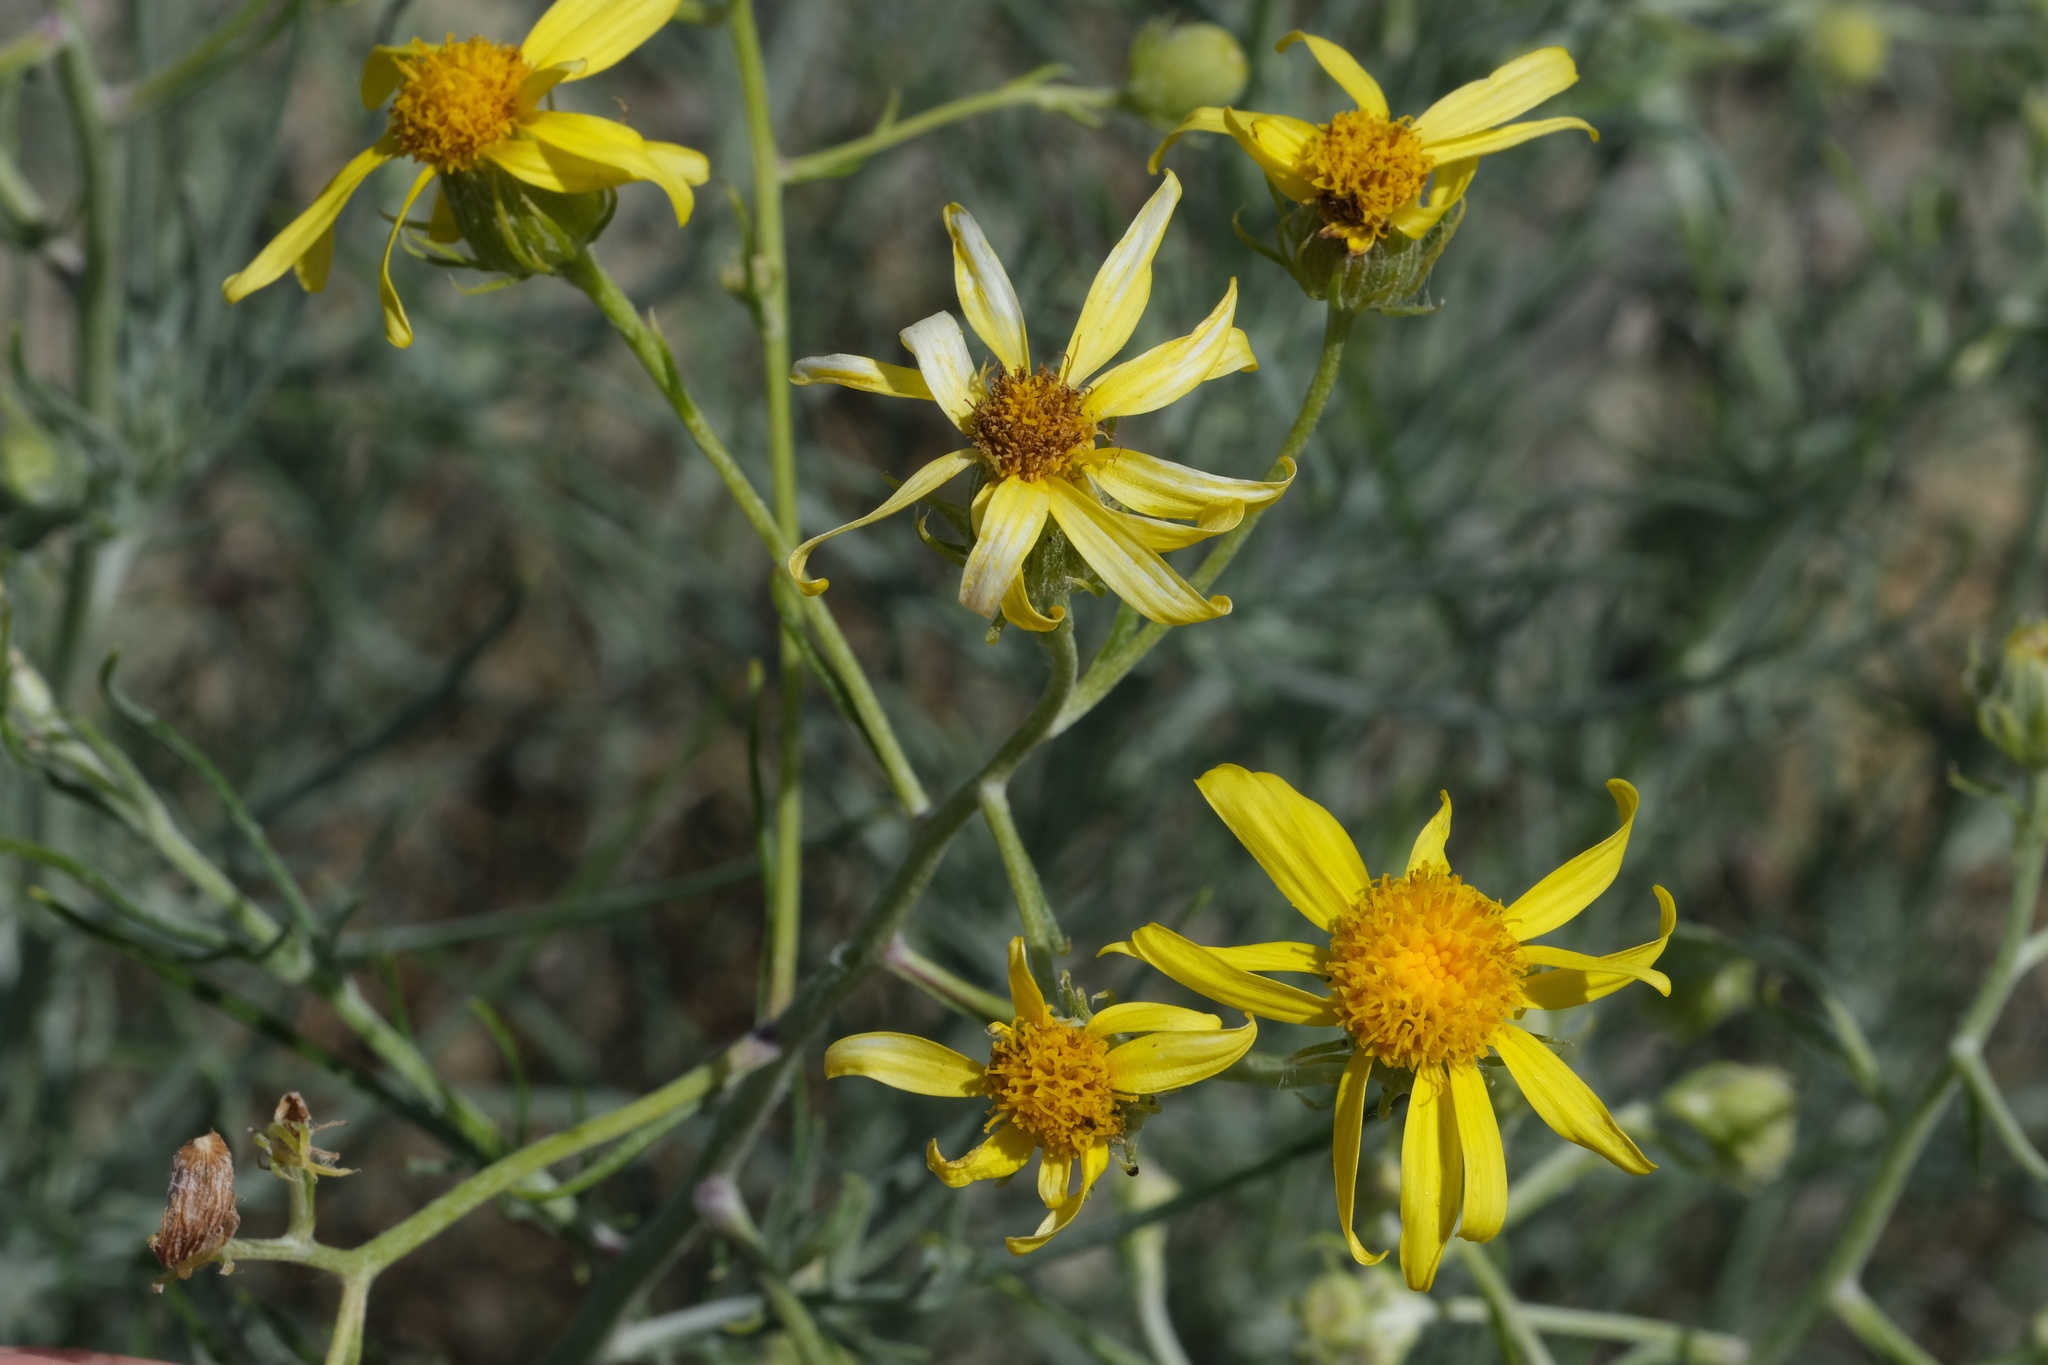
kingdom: Plantae
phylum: Tracheophyta
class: Magnoliopsida
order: Asterales
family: Asteraceae
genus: Senecio
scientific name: Senecio flaccidus
